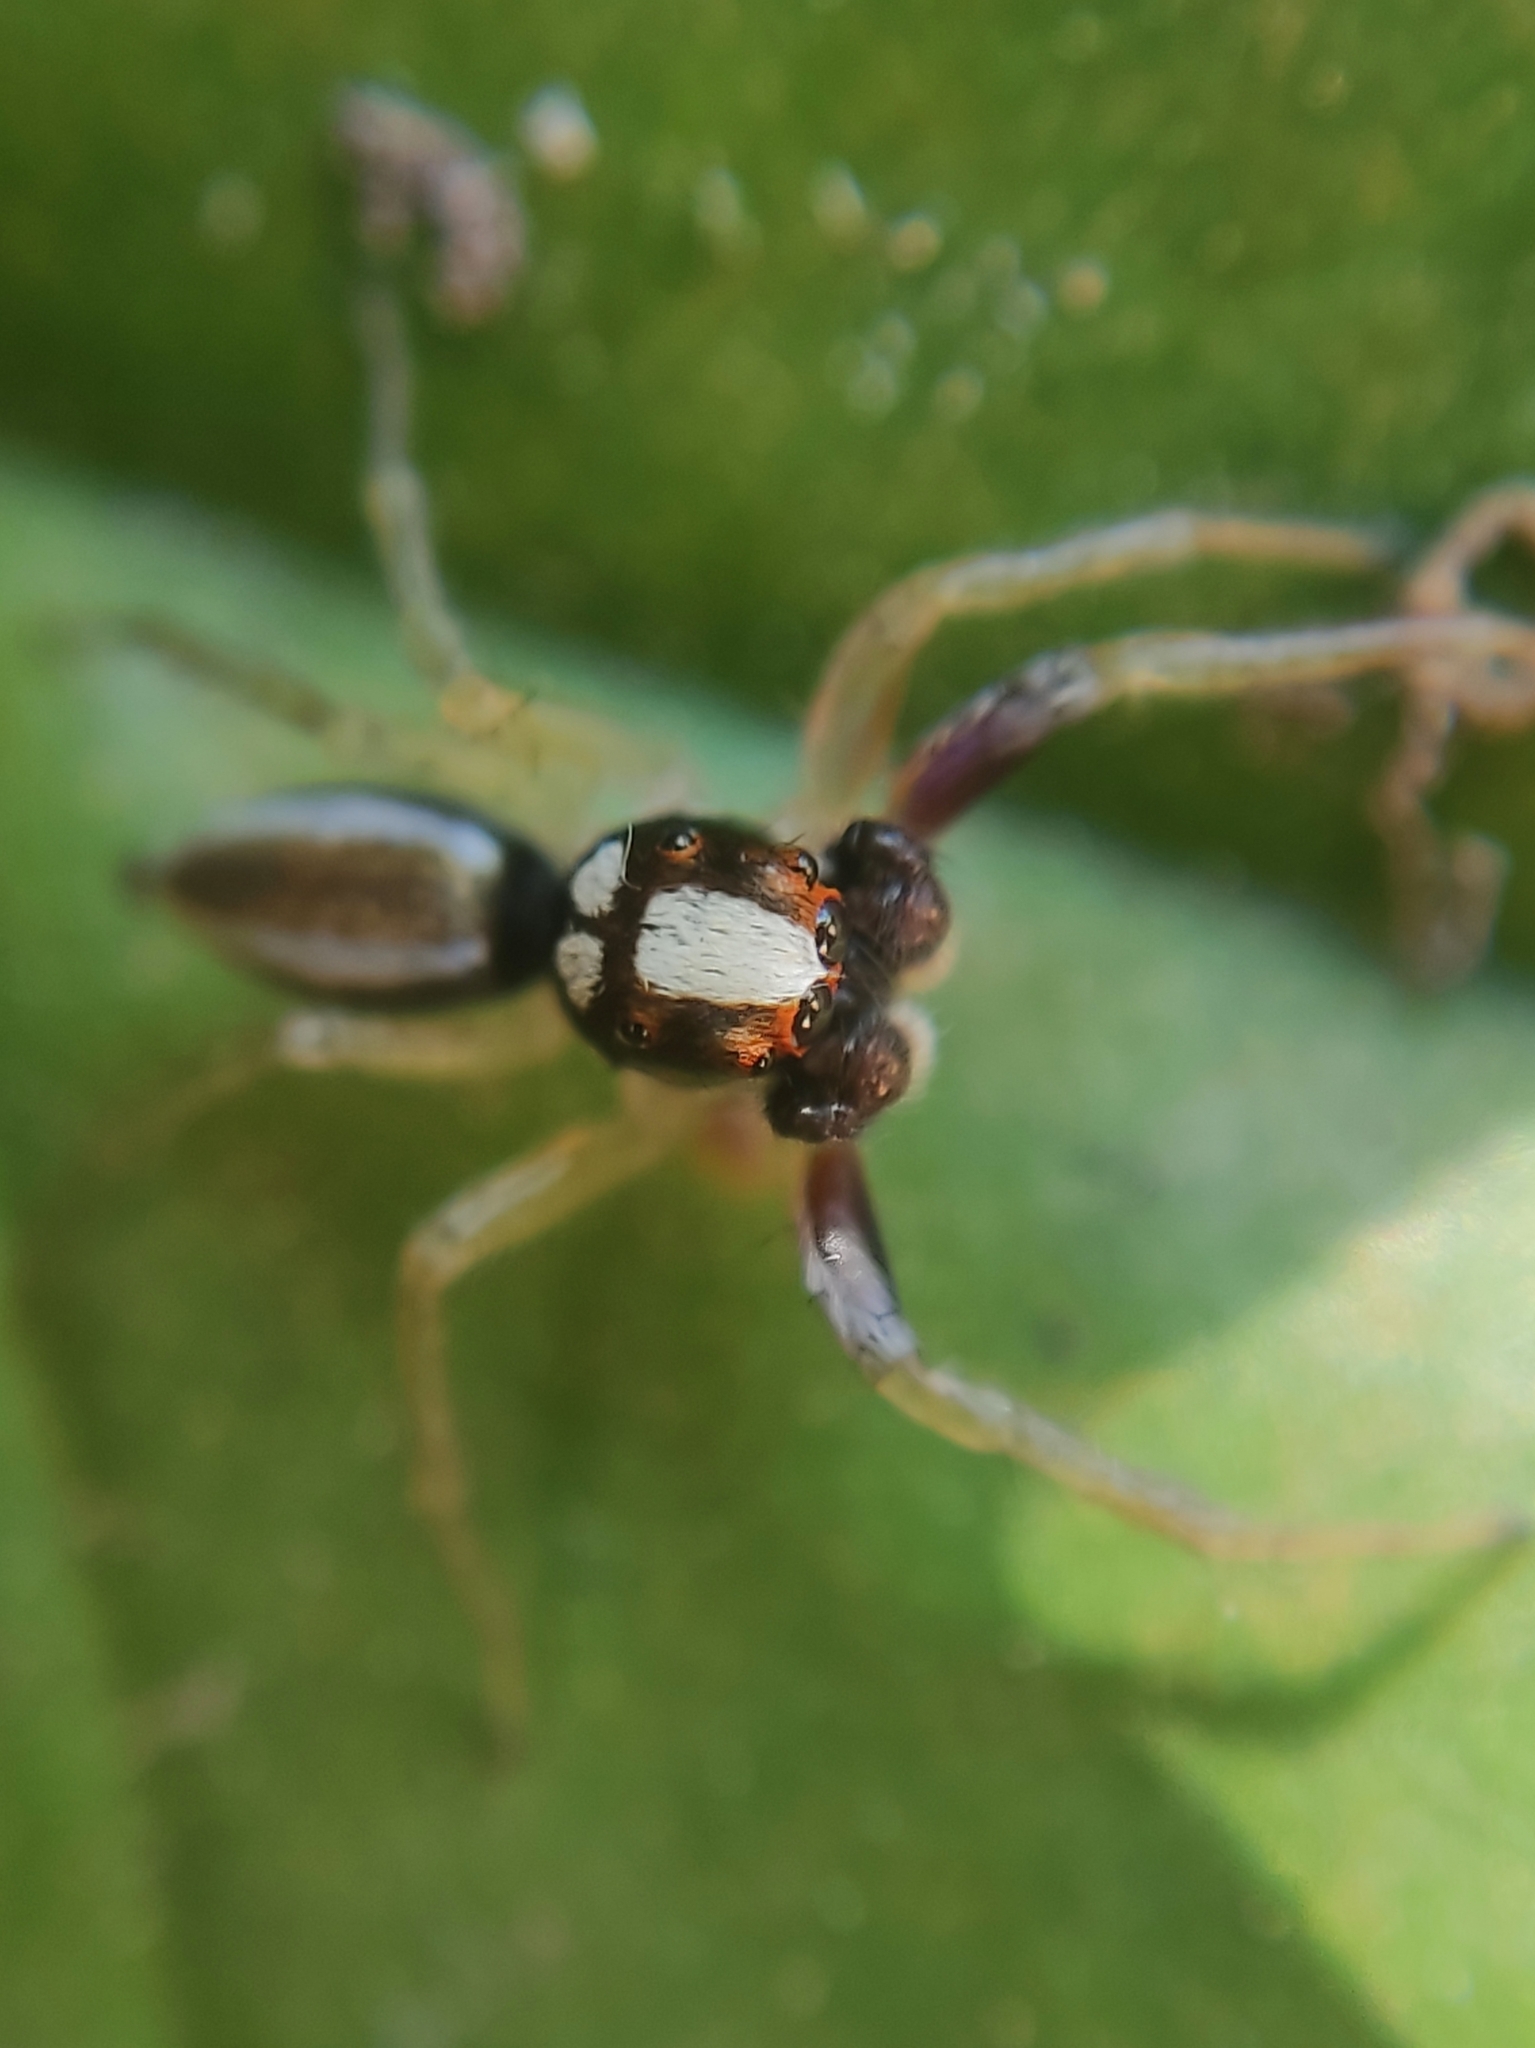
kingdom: Animalia
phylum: Arthropoda
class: Arachnida
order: Araneae
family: Salticidae
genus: Chira
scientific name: Chira spinosa
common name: Jumping spiders
